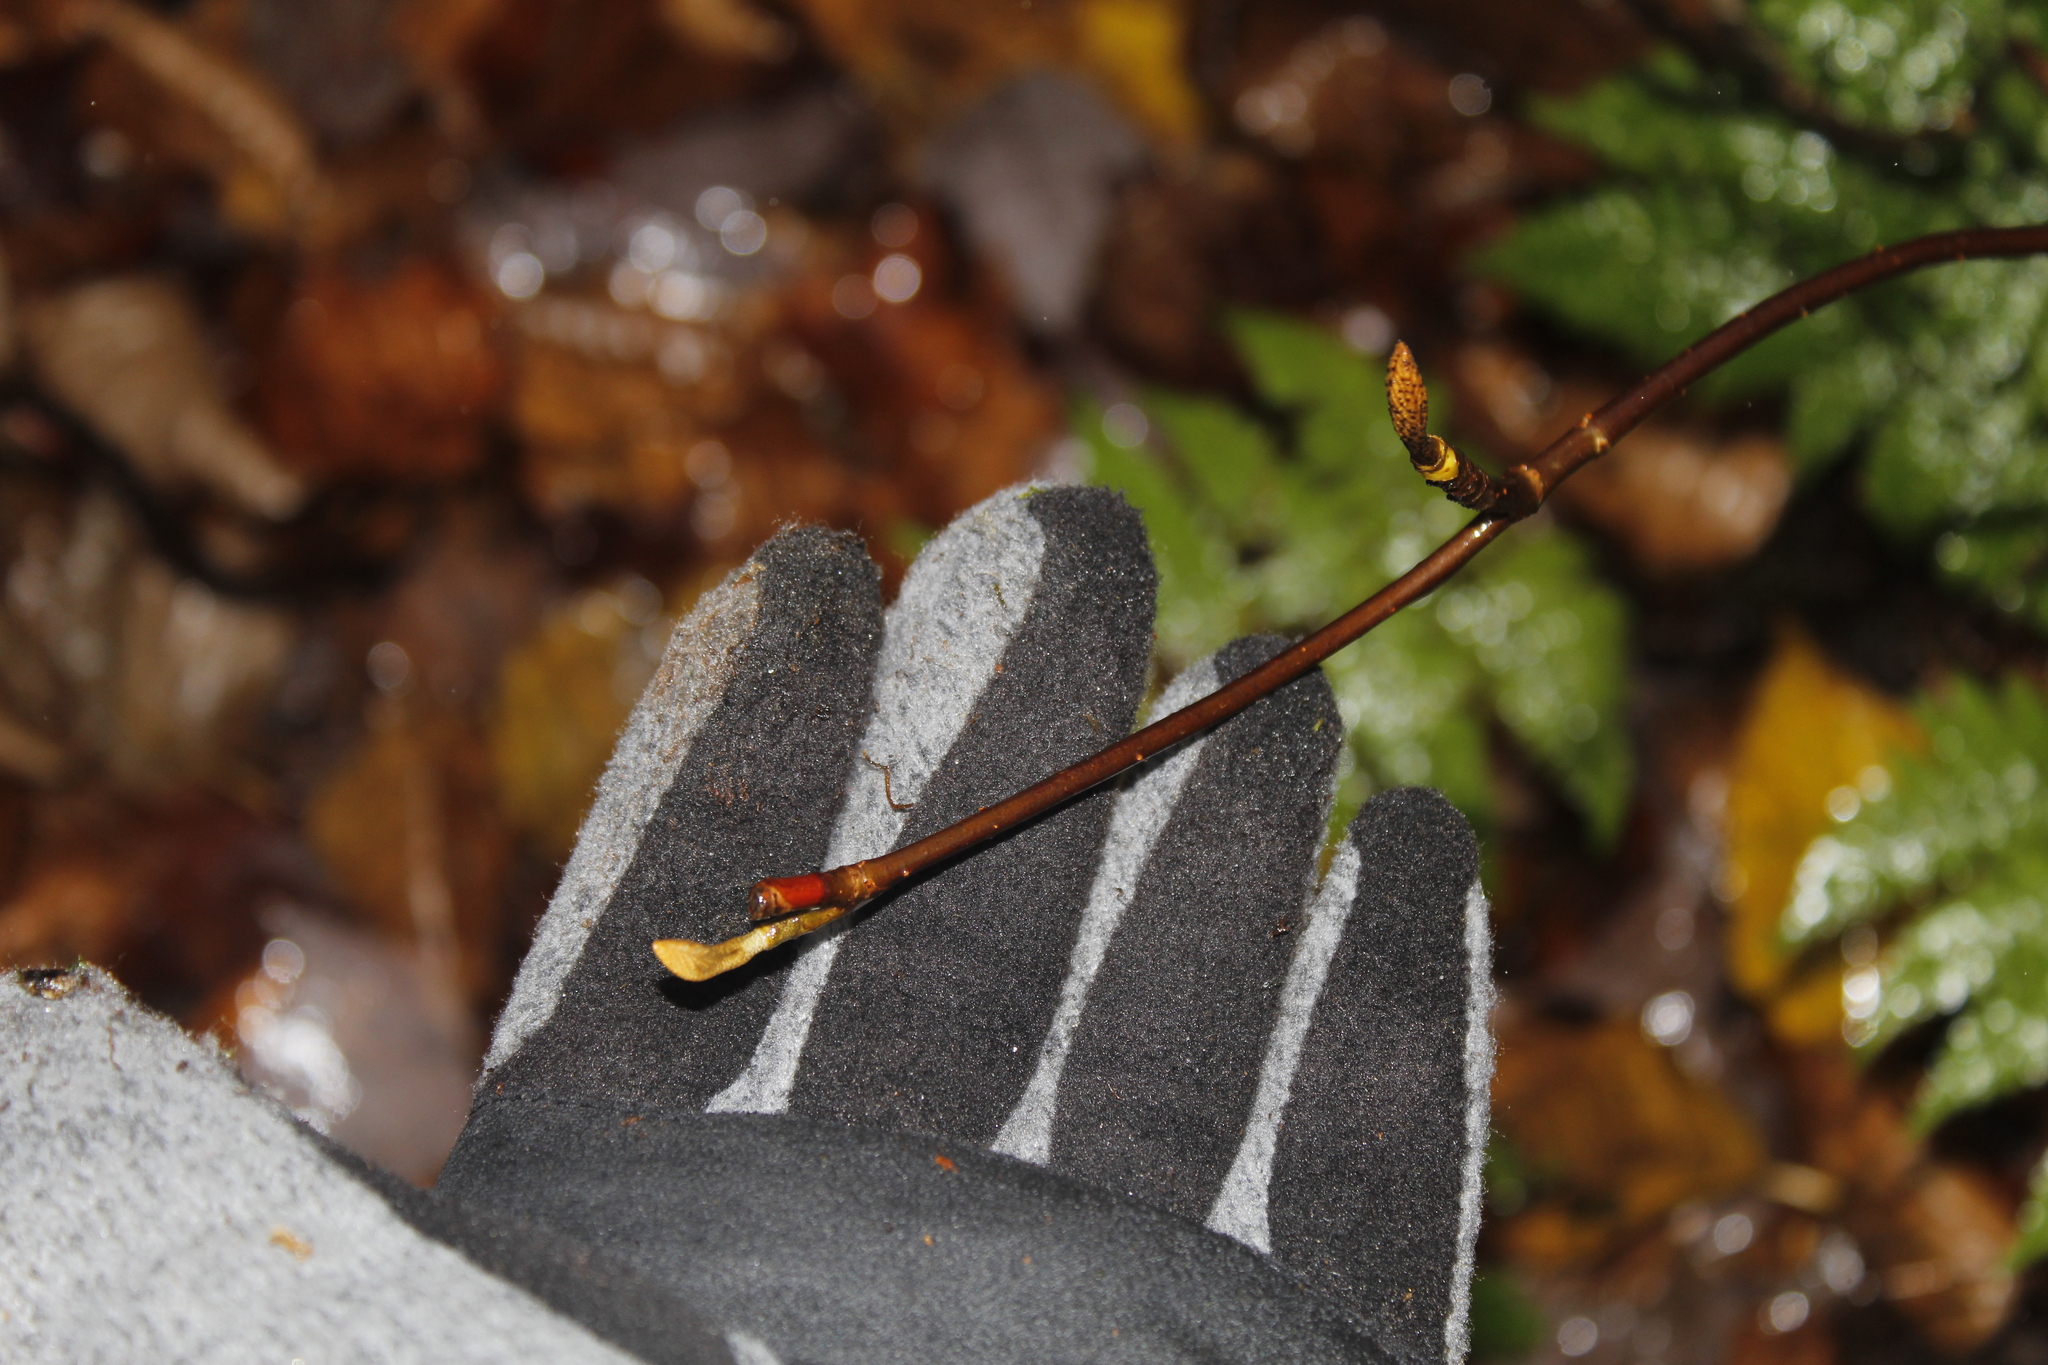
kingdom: Plantae
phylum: Tracheophyta
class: Magnoliopsida
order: Dipsacales
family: Viburnaceae
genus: Viburnum
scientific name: Viburnum lantanoides
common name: Hobblebush
